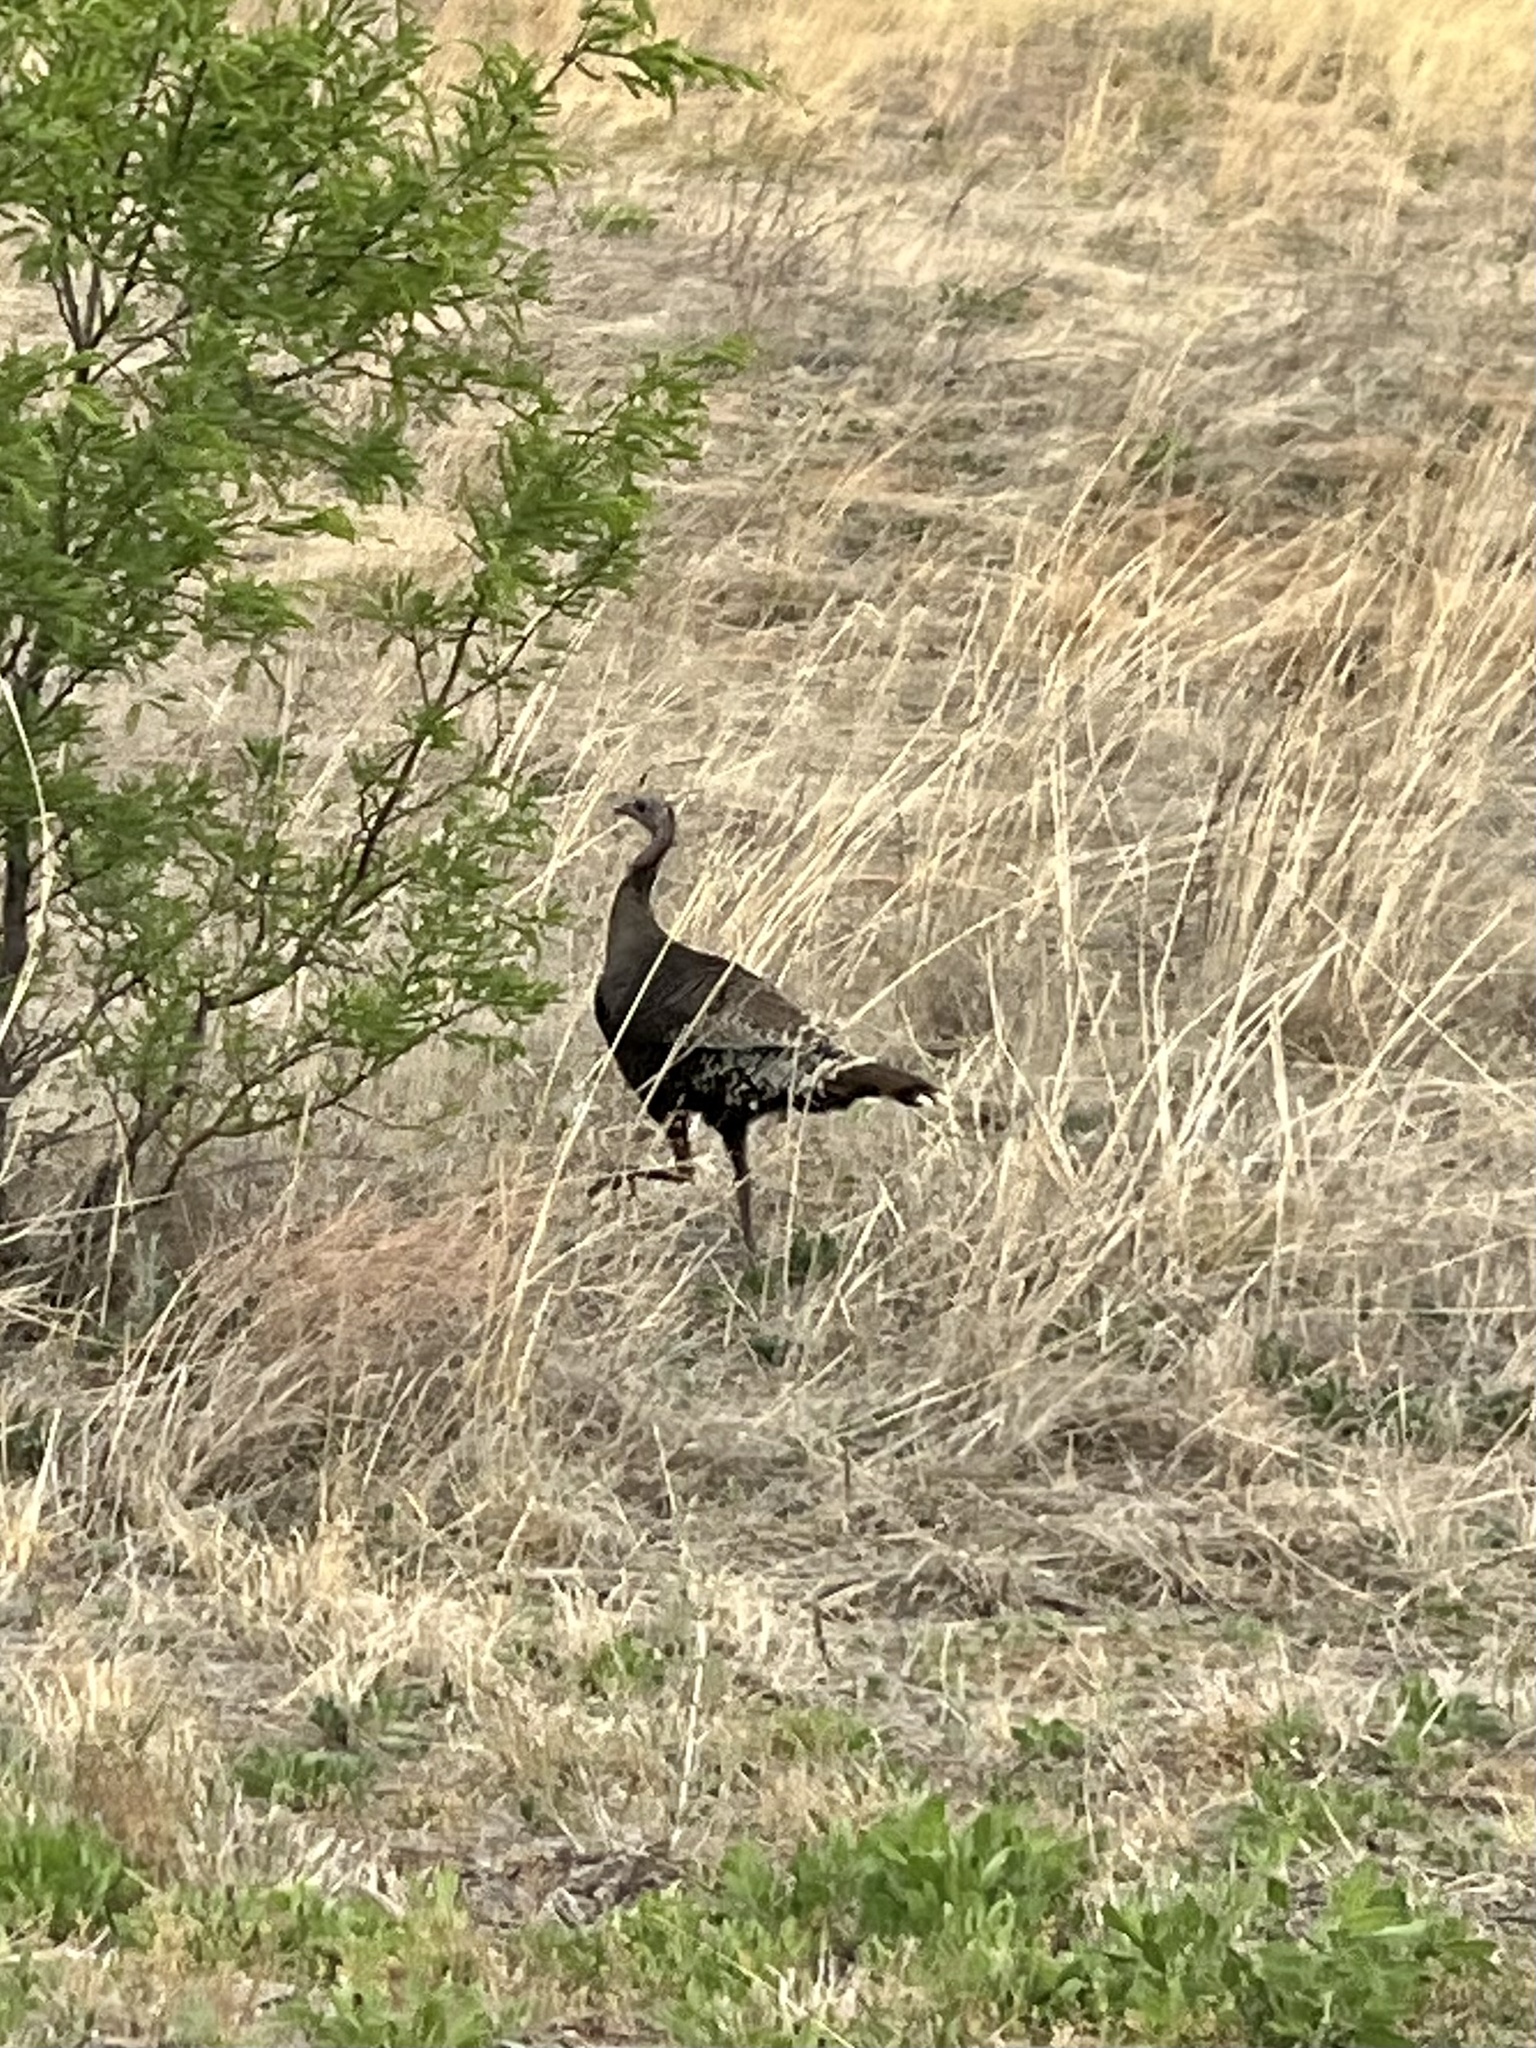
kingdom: Animalia
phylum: Chordata
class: Aves
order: Galliformes
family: Phasianidae
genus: Meleagris
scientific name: Meleagris gallopavo
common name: Wild turkey
